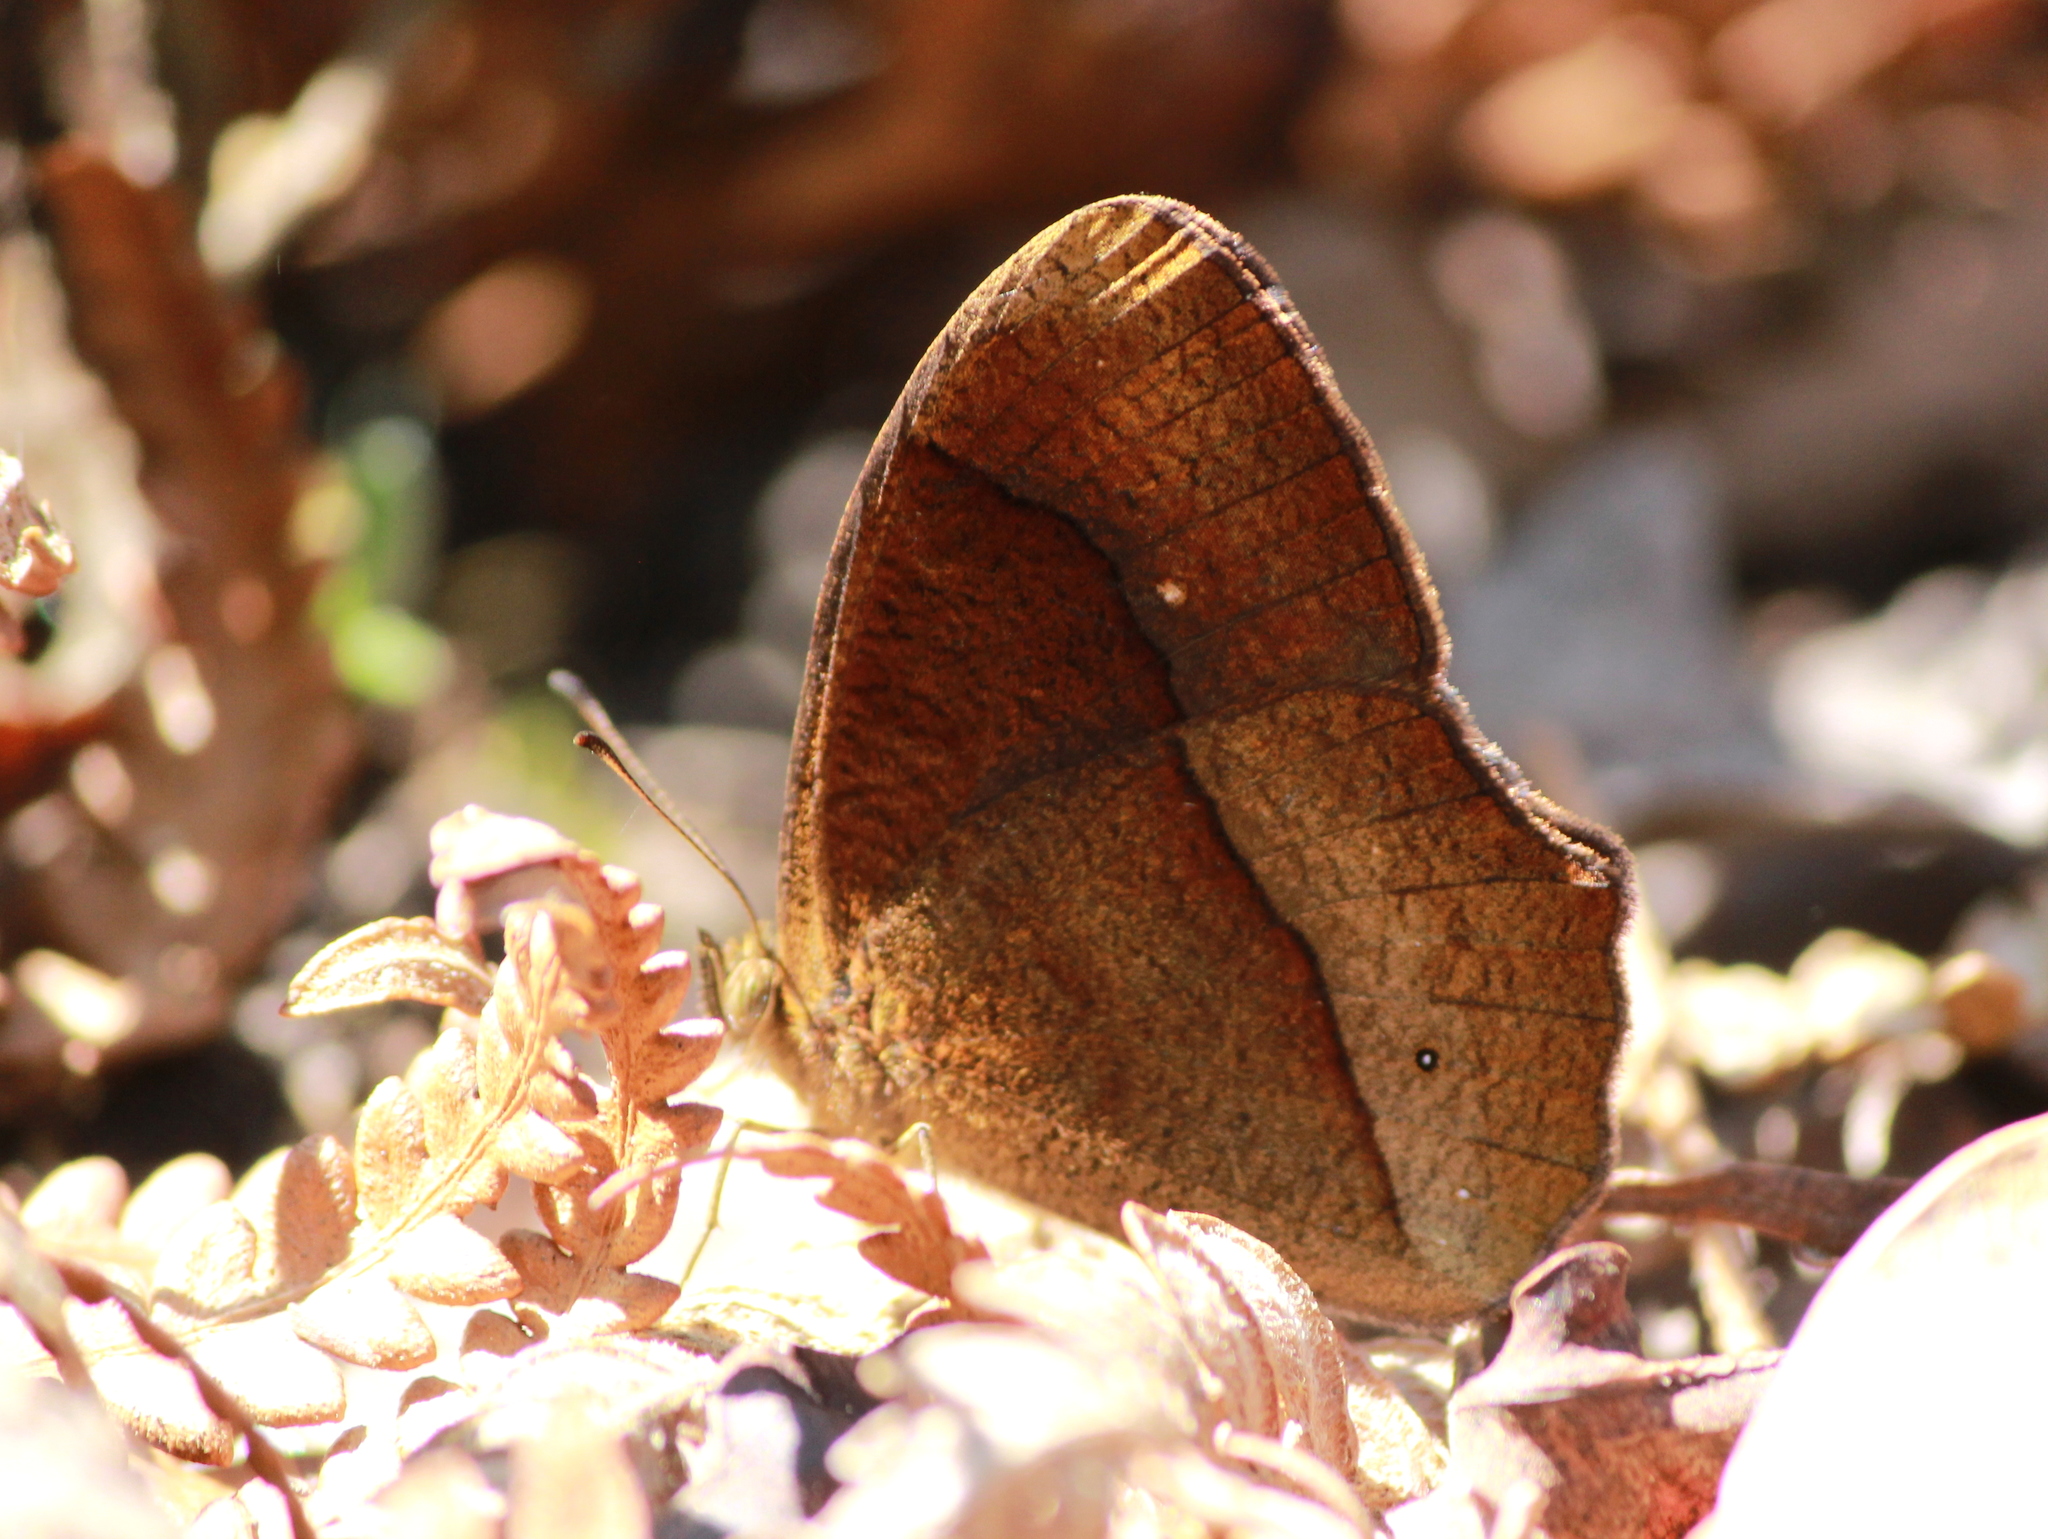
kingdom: Animalia
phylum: Arthropoda
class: Insecta
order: Lepidoptera
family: Nymphalidae
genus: Mycalesis
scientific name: Mycalesis Telinga oculus
